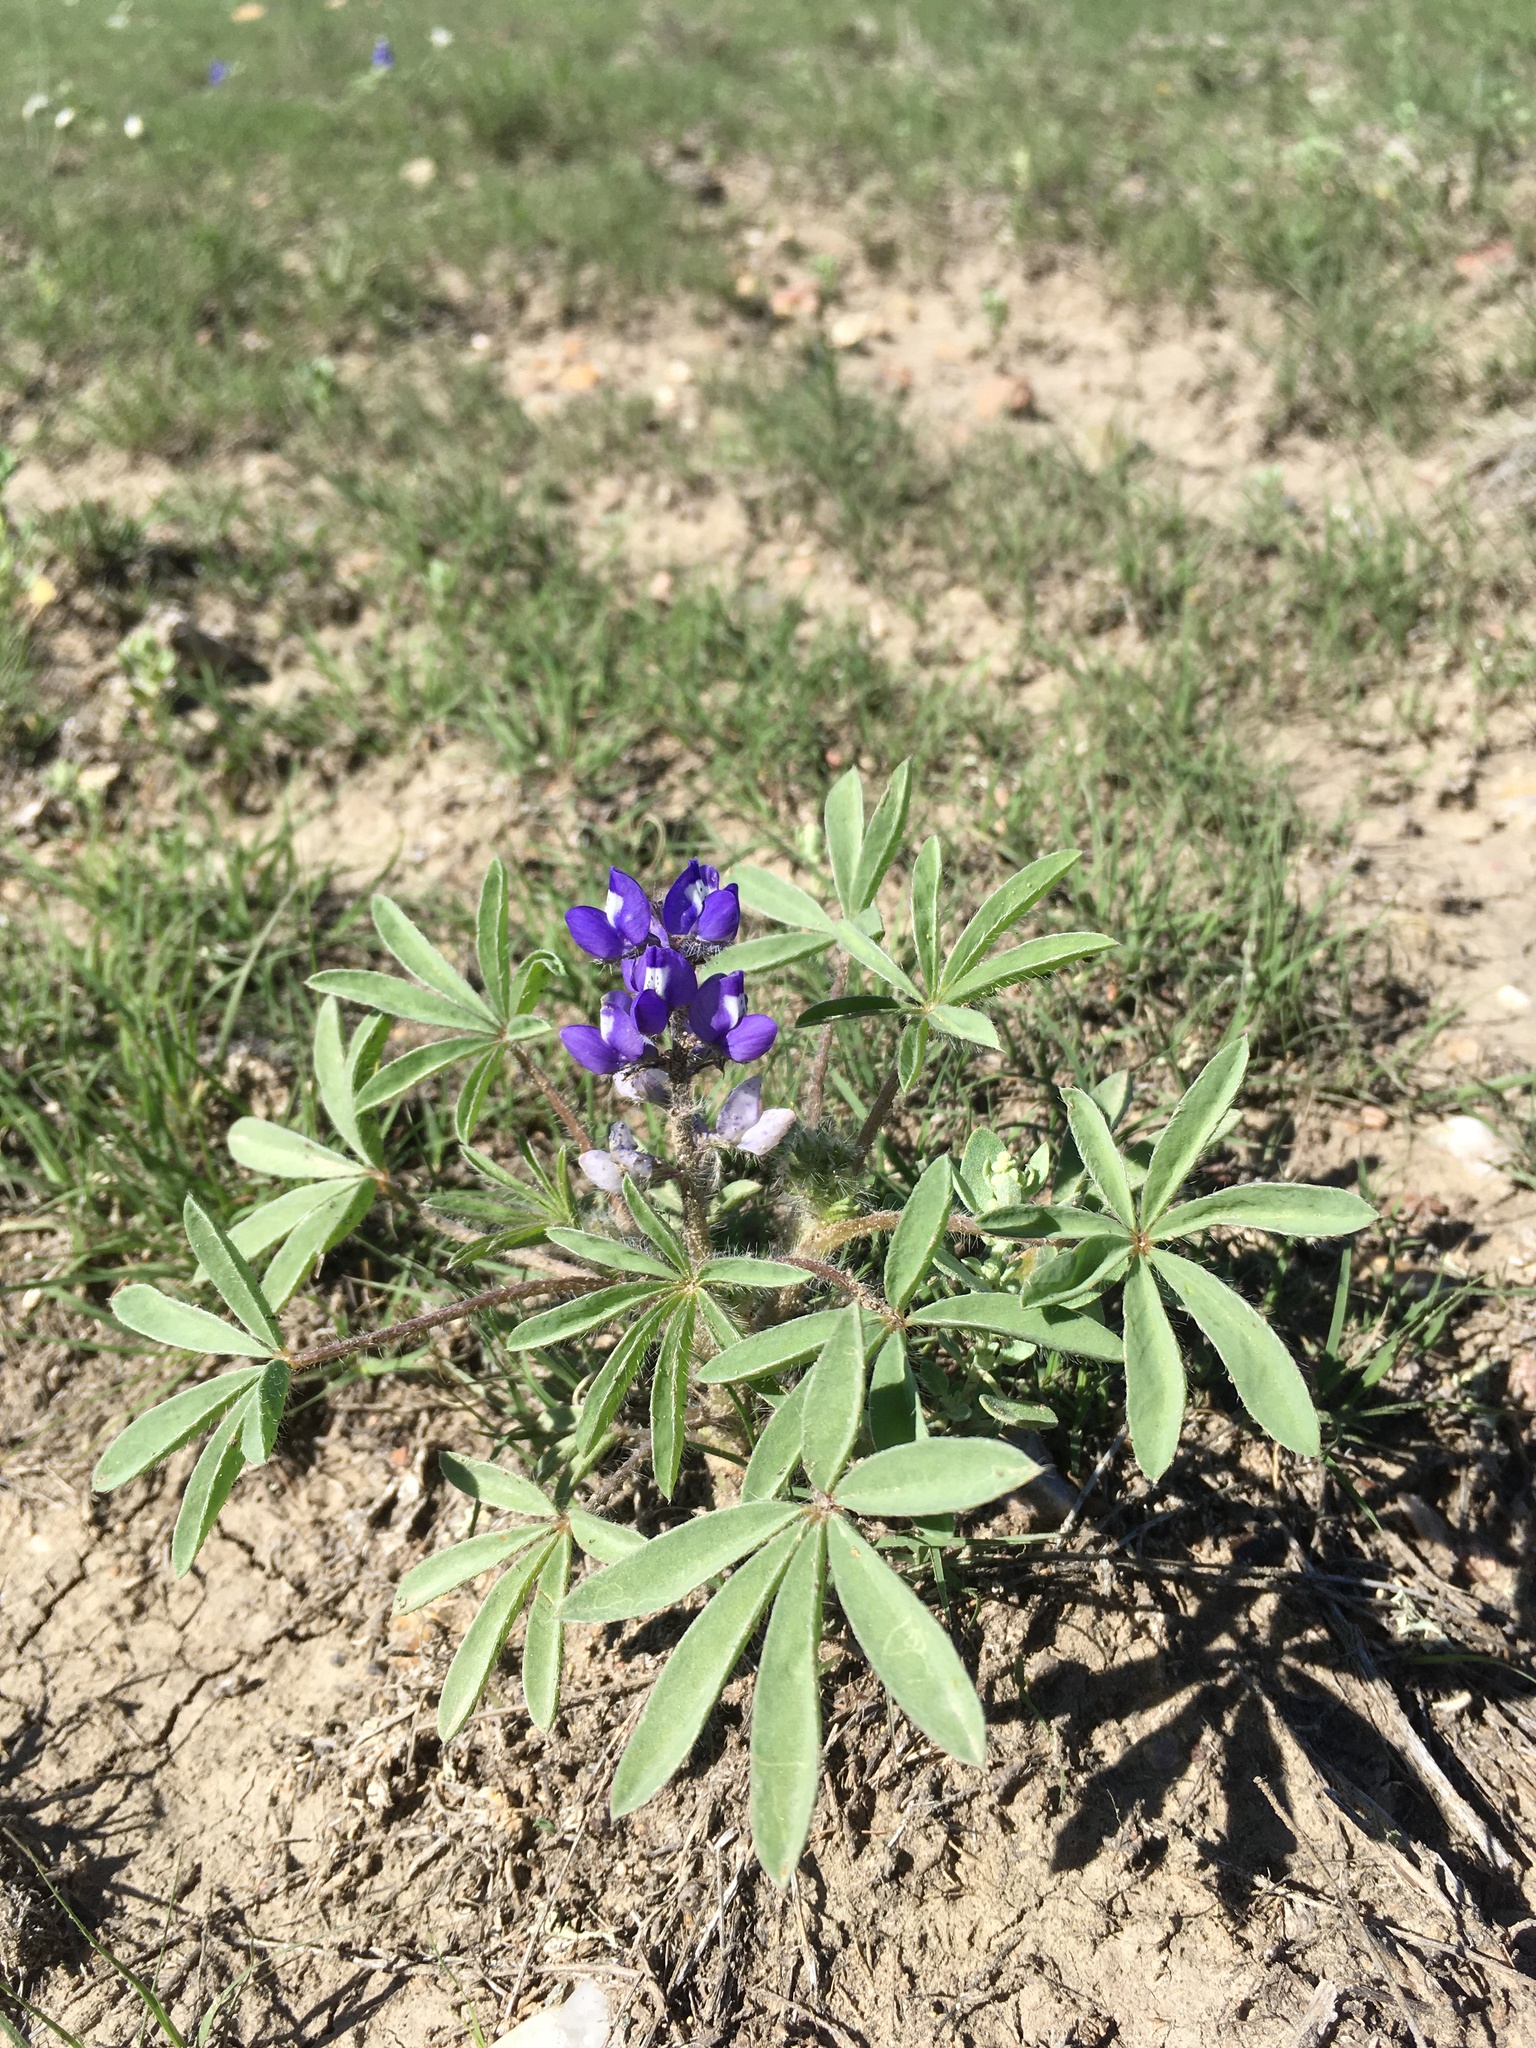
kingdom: Plantae
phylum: Tracheophyta
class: Magnoliopsida
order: Fabales
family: Fabaceae
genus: Lupinus
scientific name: Lupinus pusillus
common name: Low lupine
